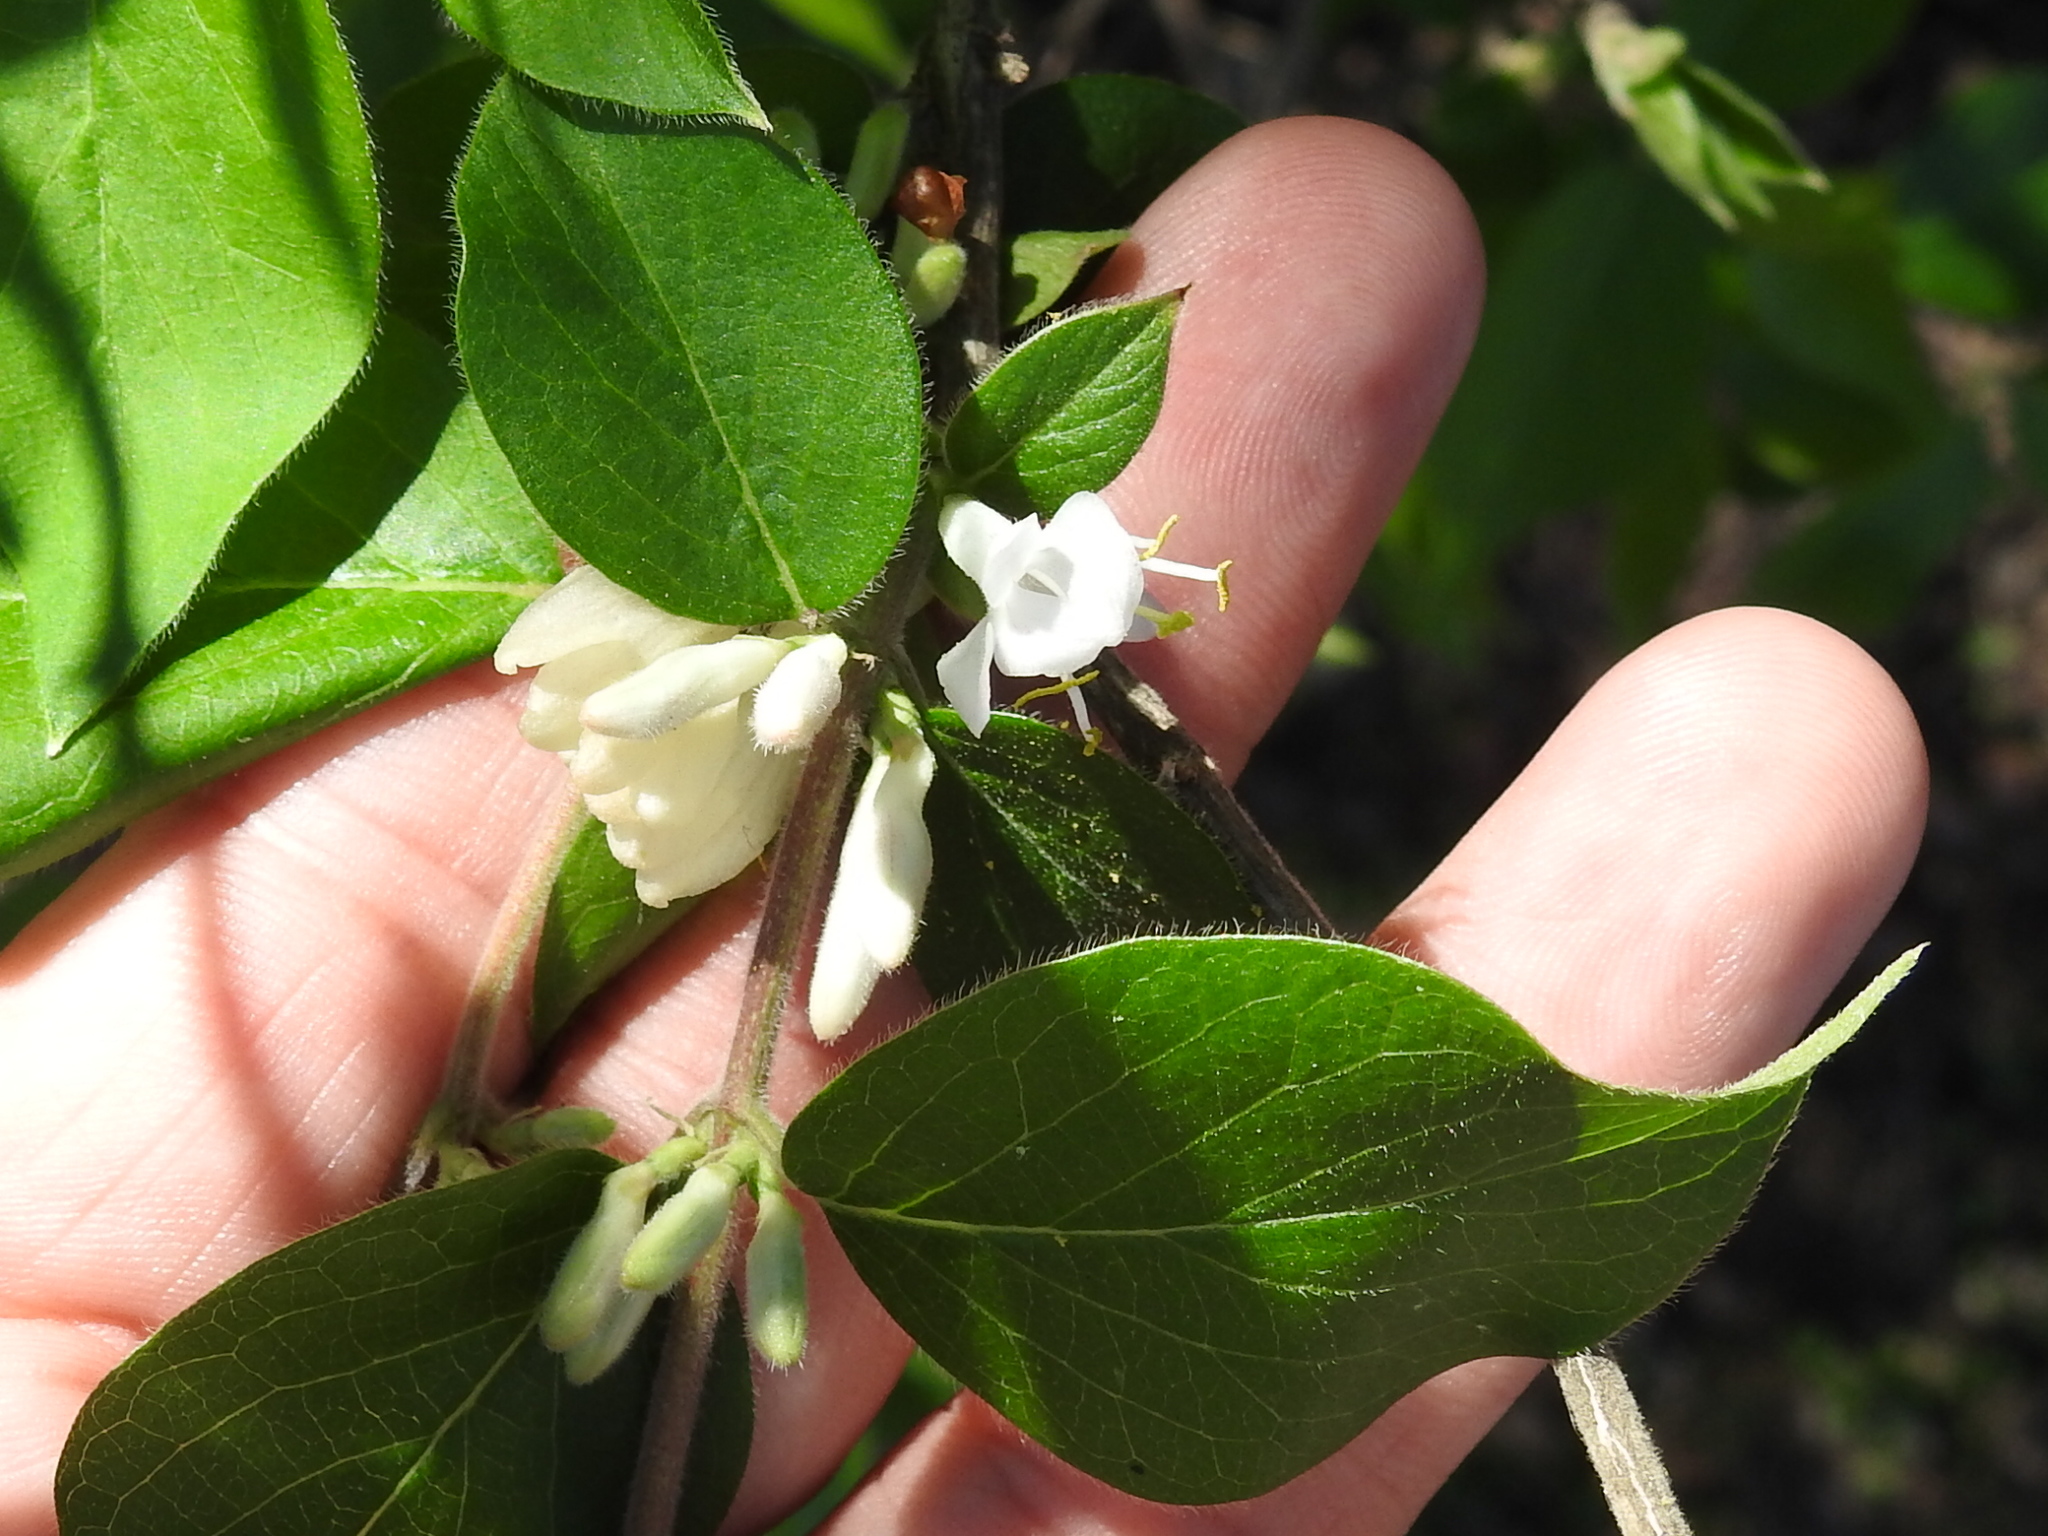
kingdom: Plantae
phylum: Tracheophyta
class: Magnoliopsida
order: Dipsacales
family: Caprifoliaceae
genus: Lonicera
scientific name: Lonicera maackii
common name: Amur honeysuckle
